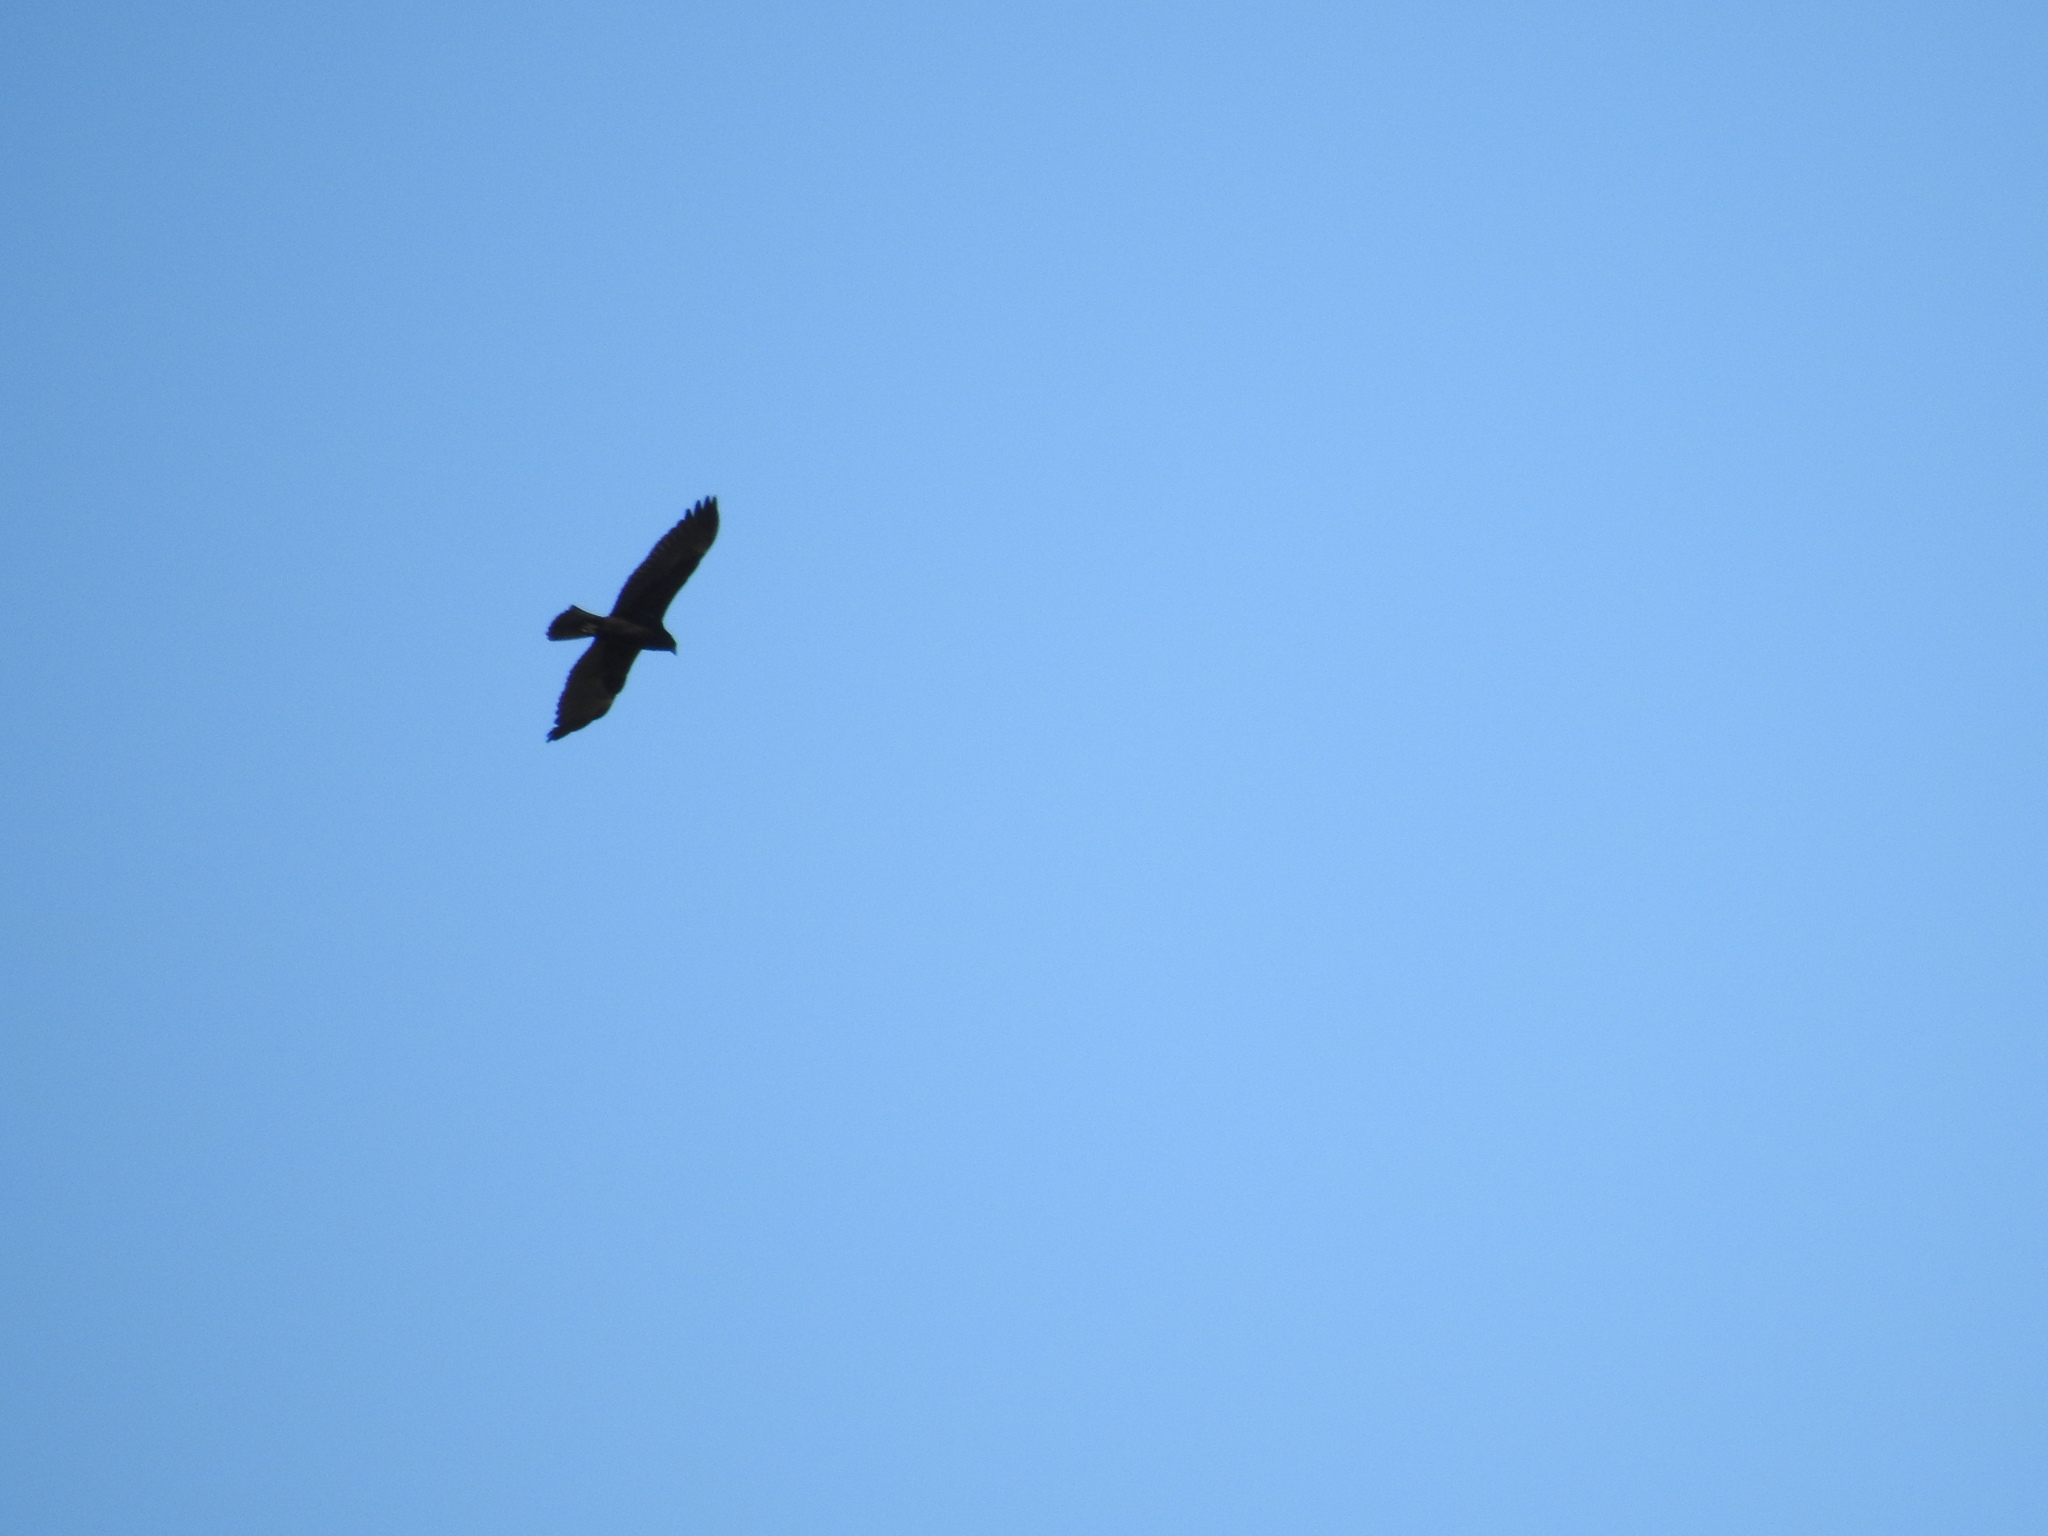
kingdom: Animalia
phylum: Chordata
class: Aves
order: Accipitriformes
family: Accipitridae
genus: Circus
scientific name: Circus aeruginosus
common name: Western marsh harrier
